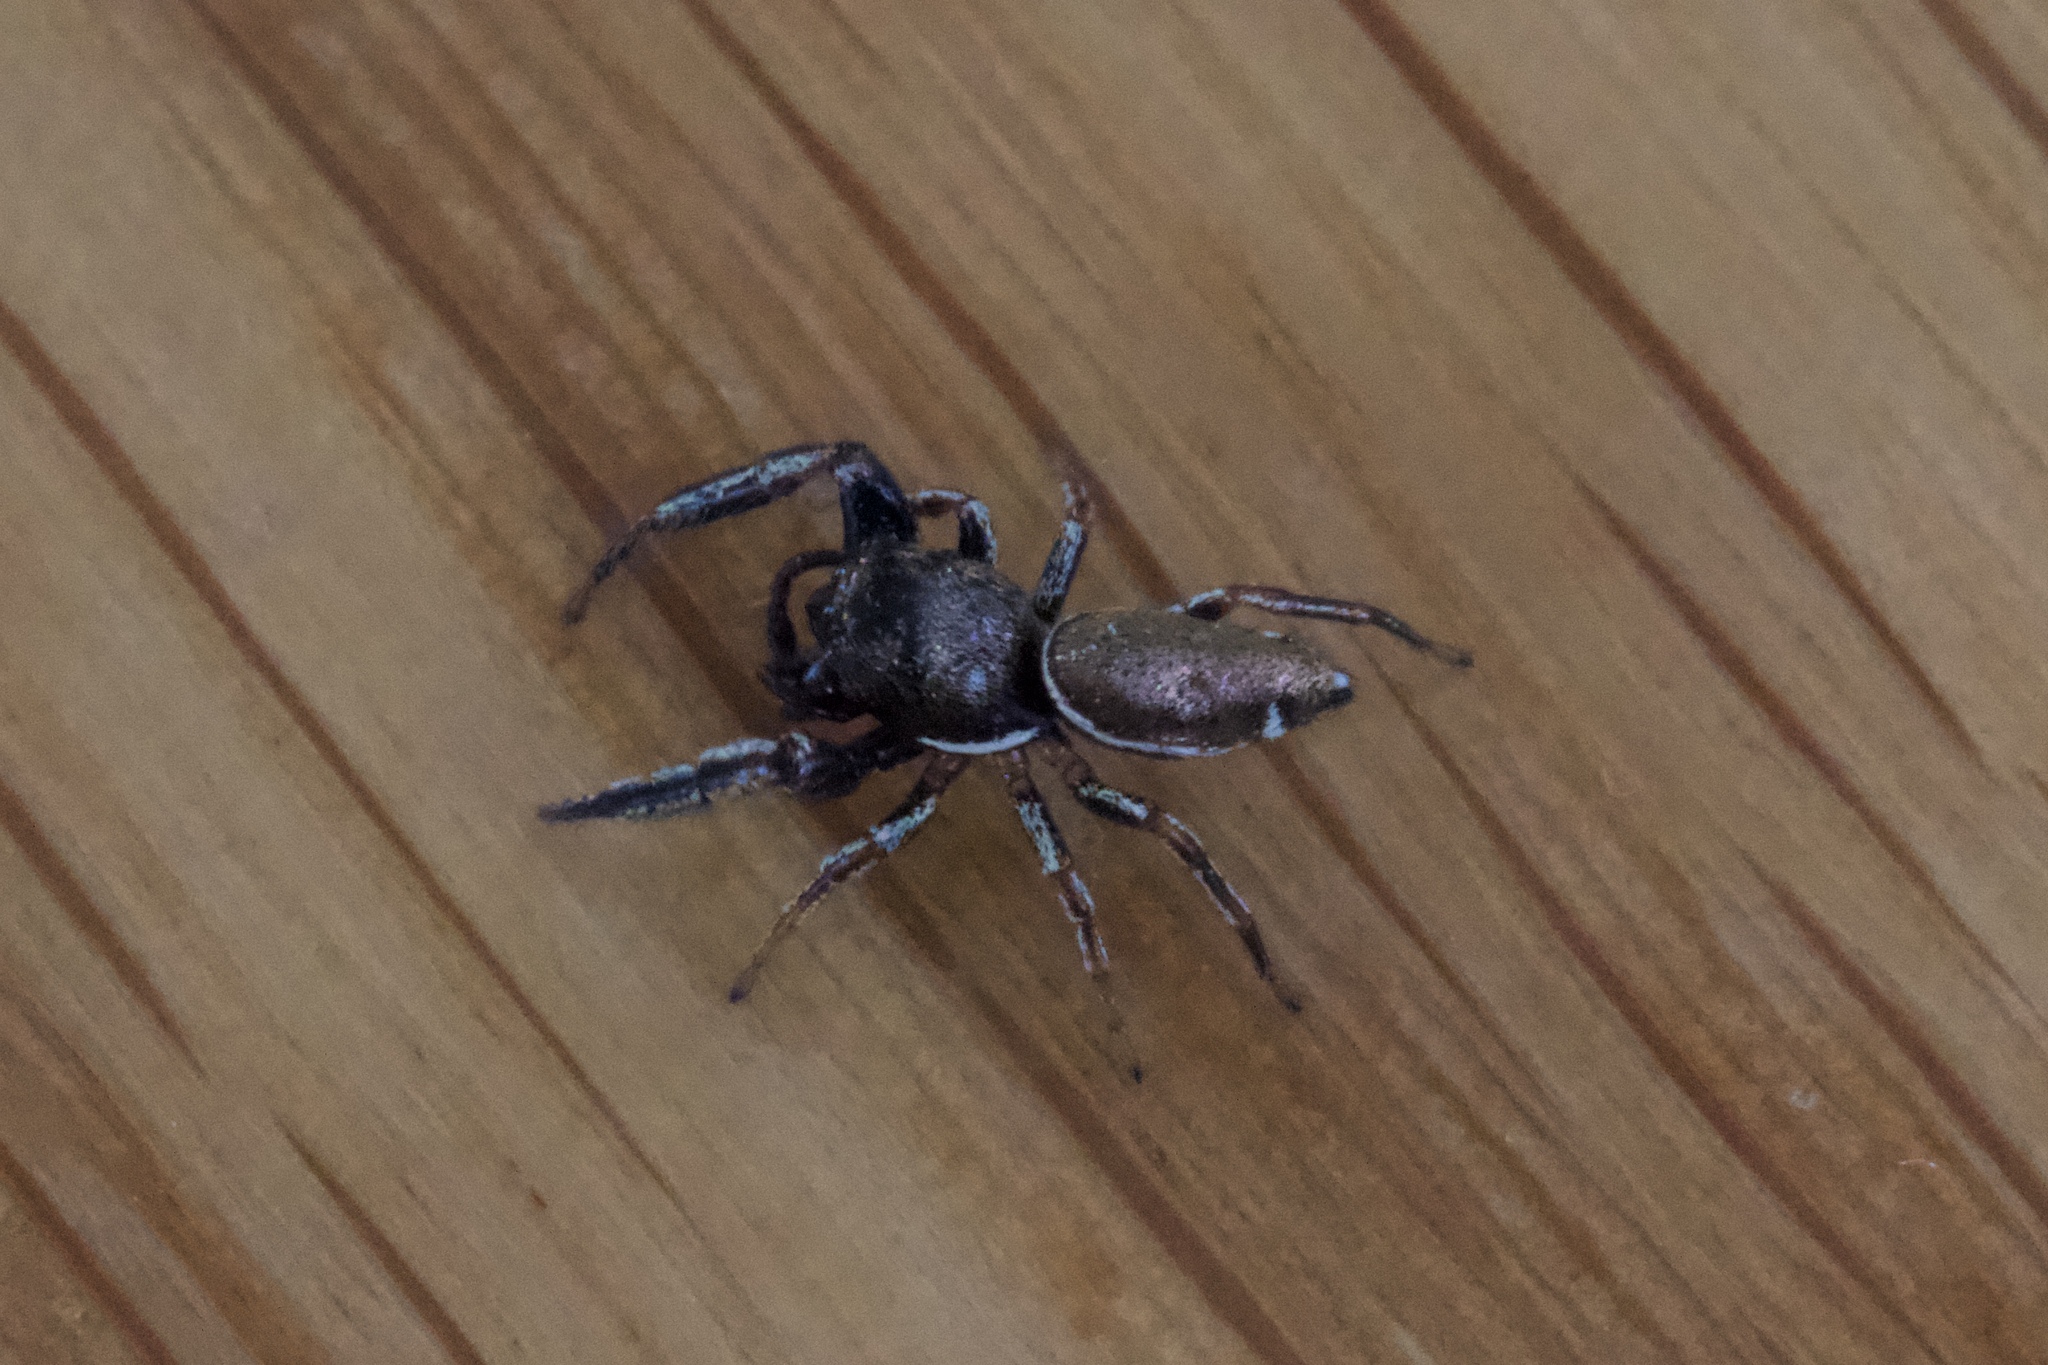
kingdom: Animalia
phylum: Arthropoda
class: Arachnida
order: Araneae
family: Salticidae
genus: Sassacus
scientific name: Sassacus vitis
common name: Jumping spiders
